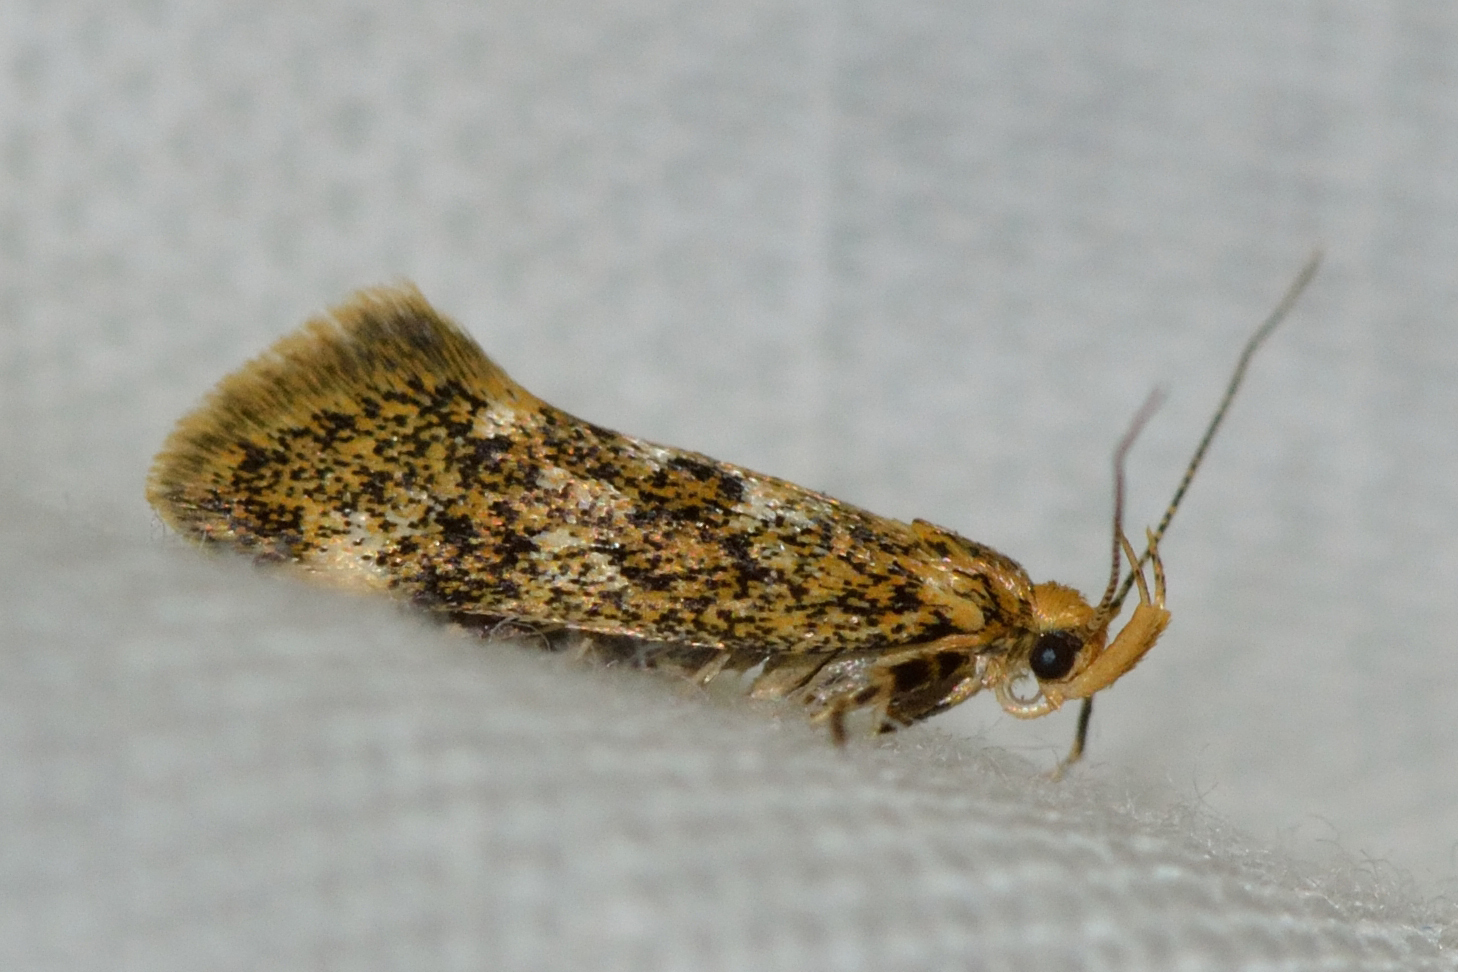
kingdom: Animalia
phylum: Arthropoda
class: Insecta
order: Lepidoptera
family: Oecophoridae
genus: Denisia
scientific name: Denisia luticiliella
